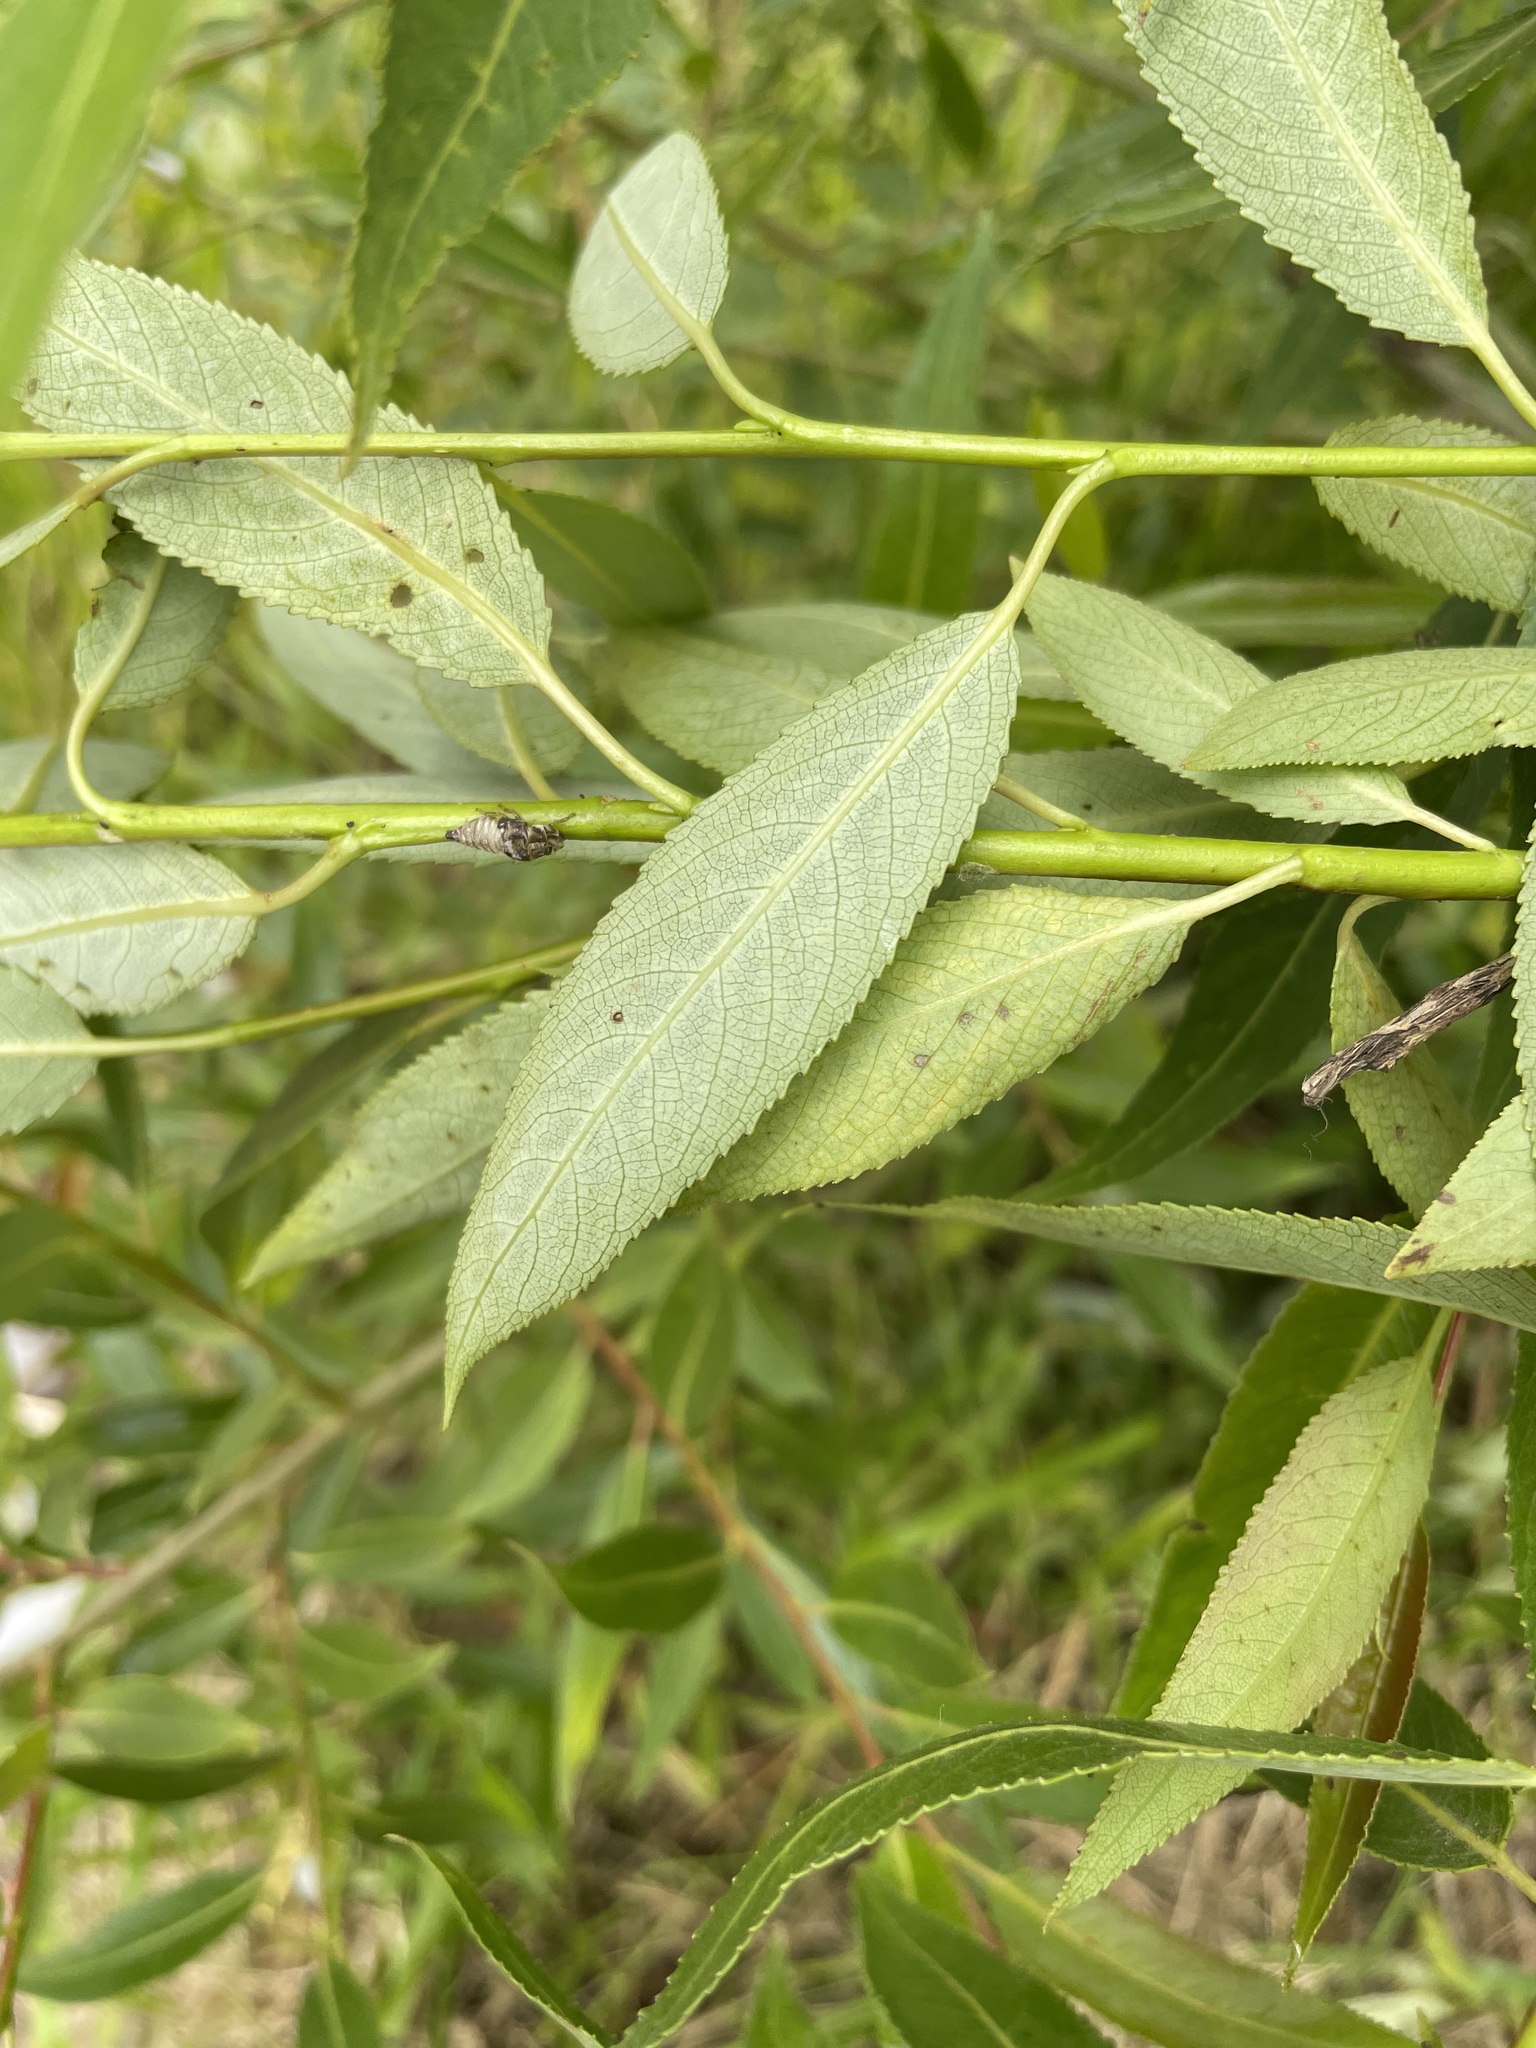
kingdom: Plantae
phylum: Tracheophyta
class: Magnoliopsida
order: Malpighiales
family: Salicaceae
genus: Salix
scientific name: Salix triandra
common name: Almond willow
